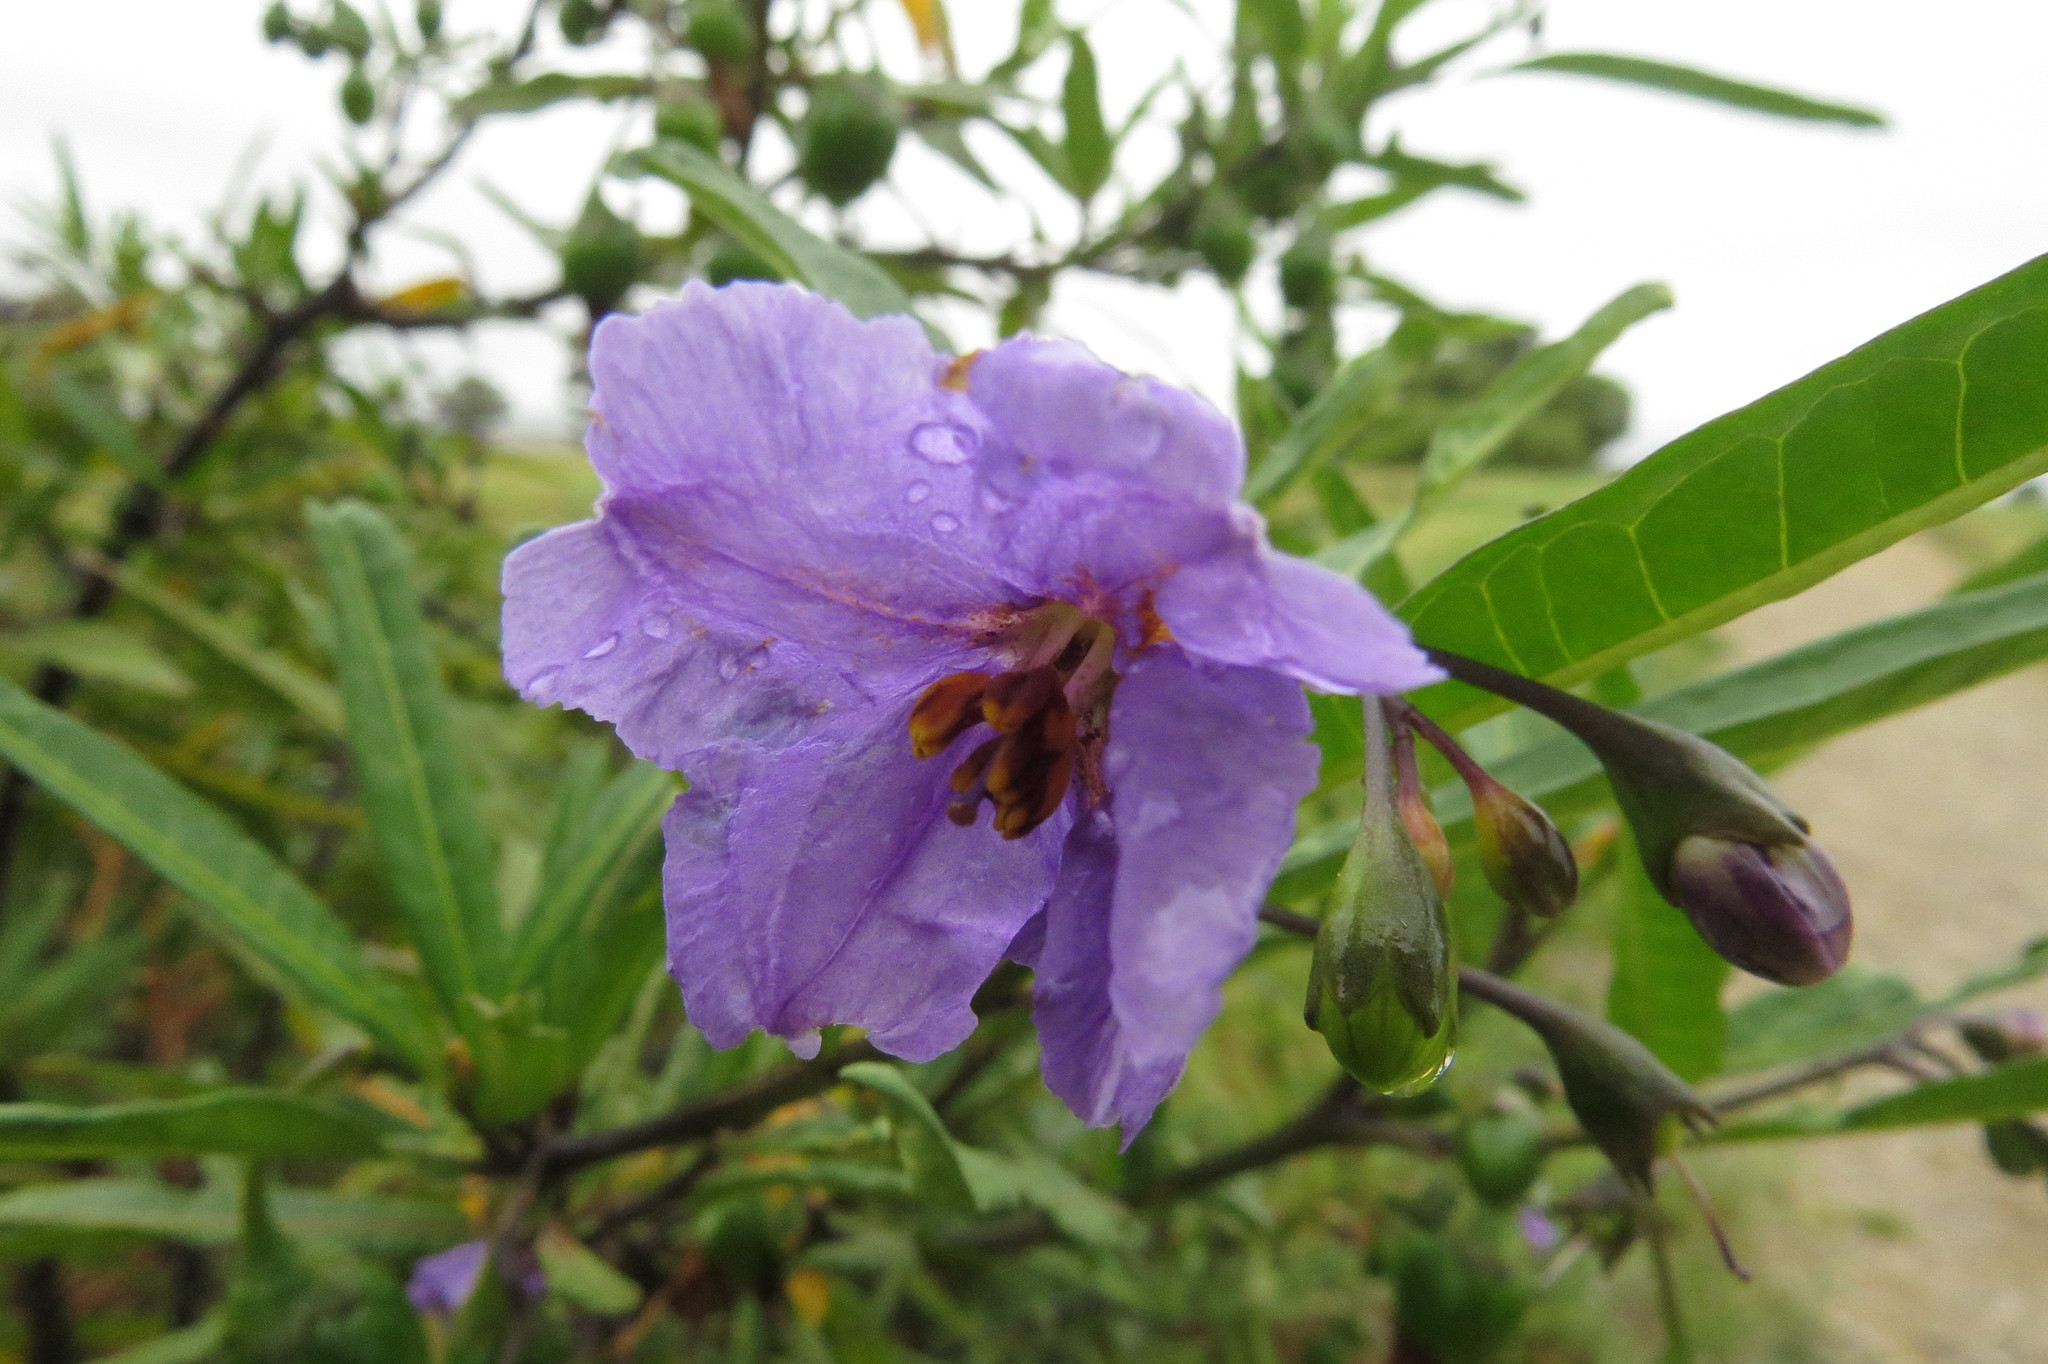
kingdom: Plantae
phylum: Tracheophyta
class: Magnoliopsida
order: Solanales
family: Solanaceae
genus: Solanum
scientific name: Solanum laciniatum
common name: Kangaroo-apple
